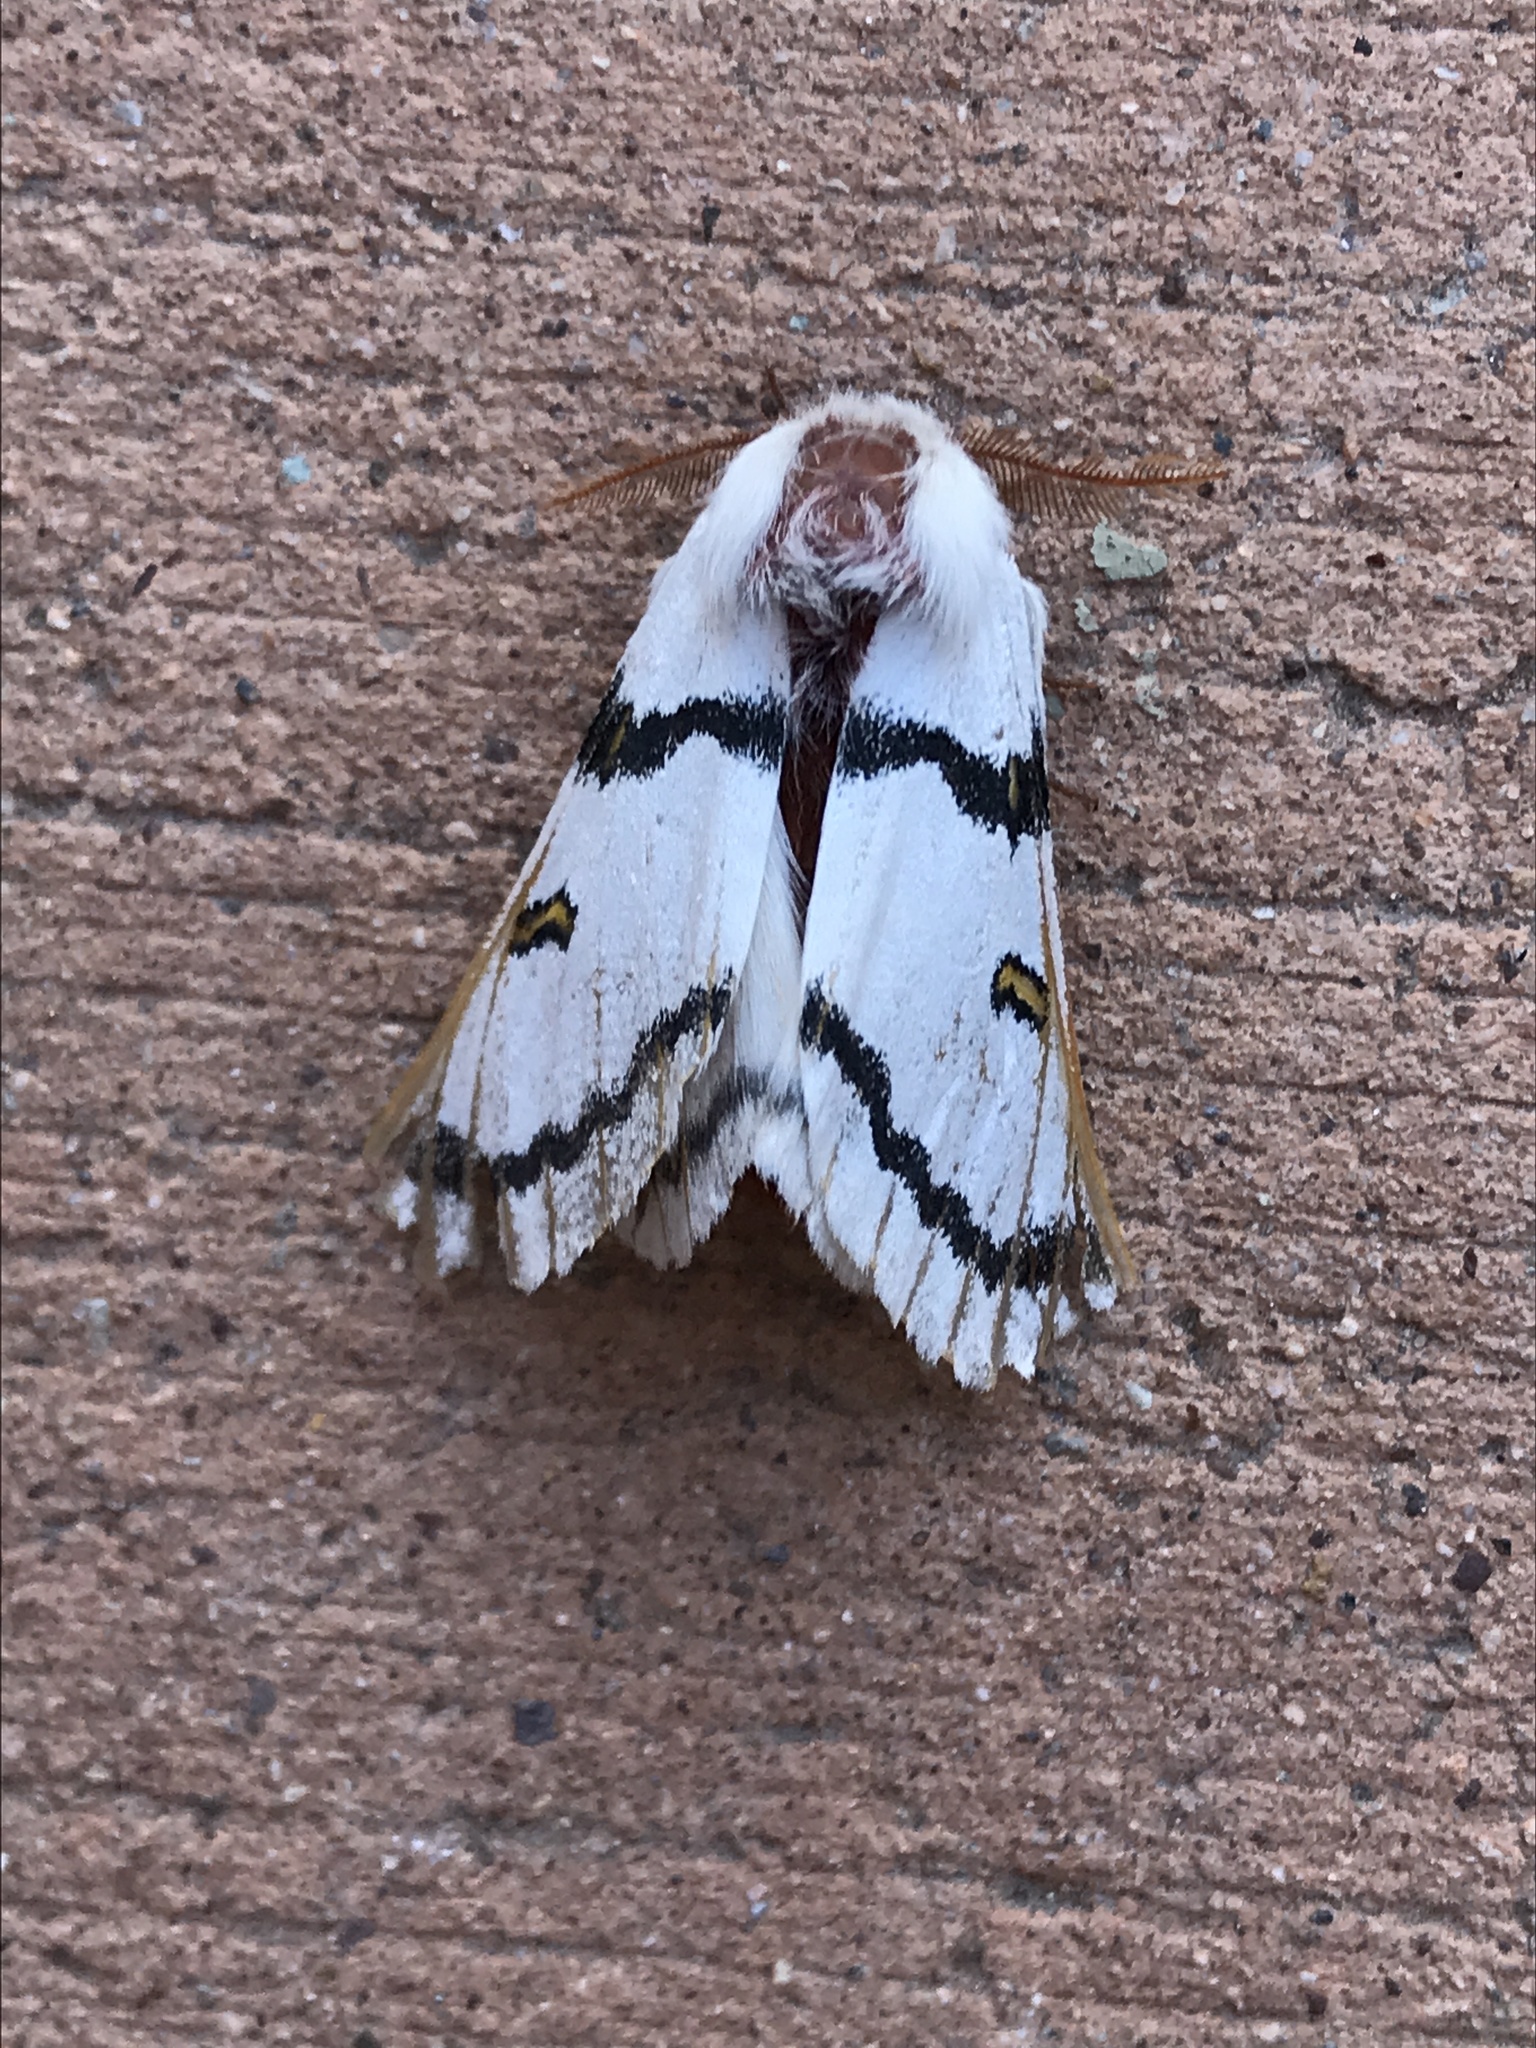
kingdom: Animalia
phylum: Arthropoda
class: Insecta
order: Lepidoptera
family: Saturniidae
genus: Hemileuca
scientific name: Hemileuca neumoegeni
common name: Neumoegen's buckmoth
